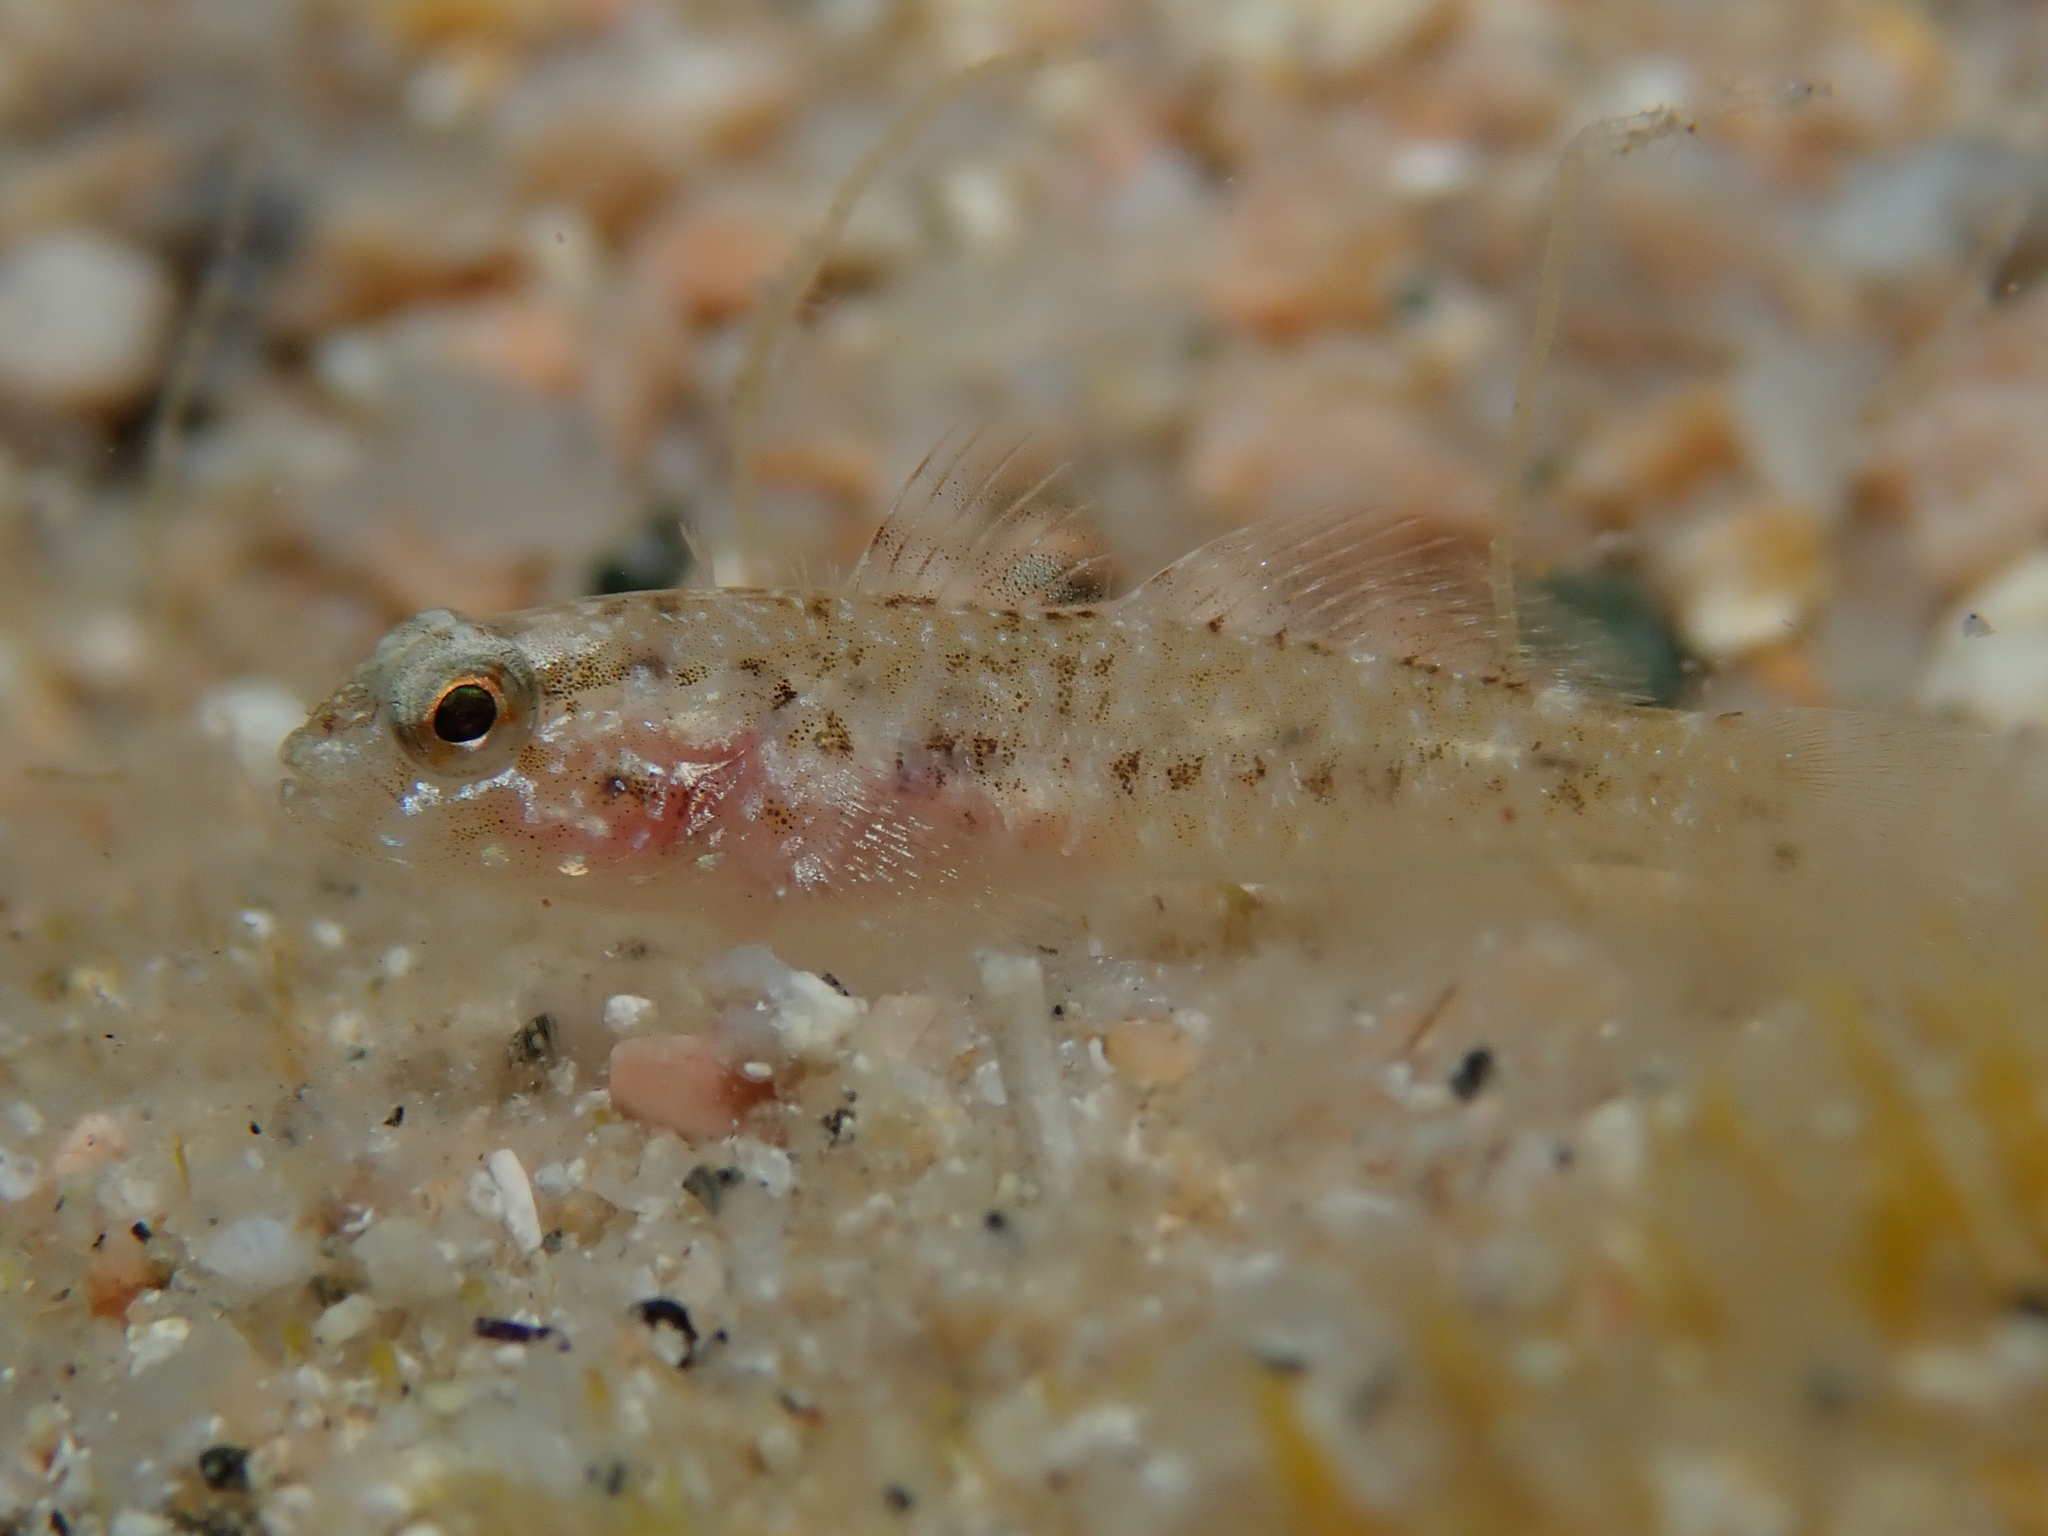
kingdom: Animalia
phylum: Chordata
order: Perciformes
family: Gobiidae
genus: Gobius
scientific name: Gobius paganellus
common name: Rock goby
